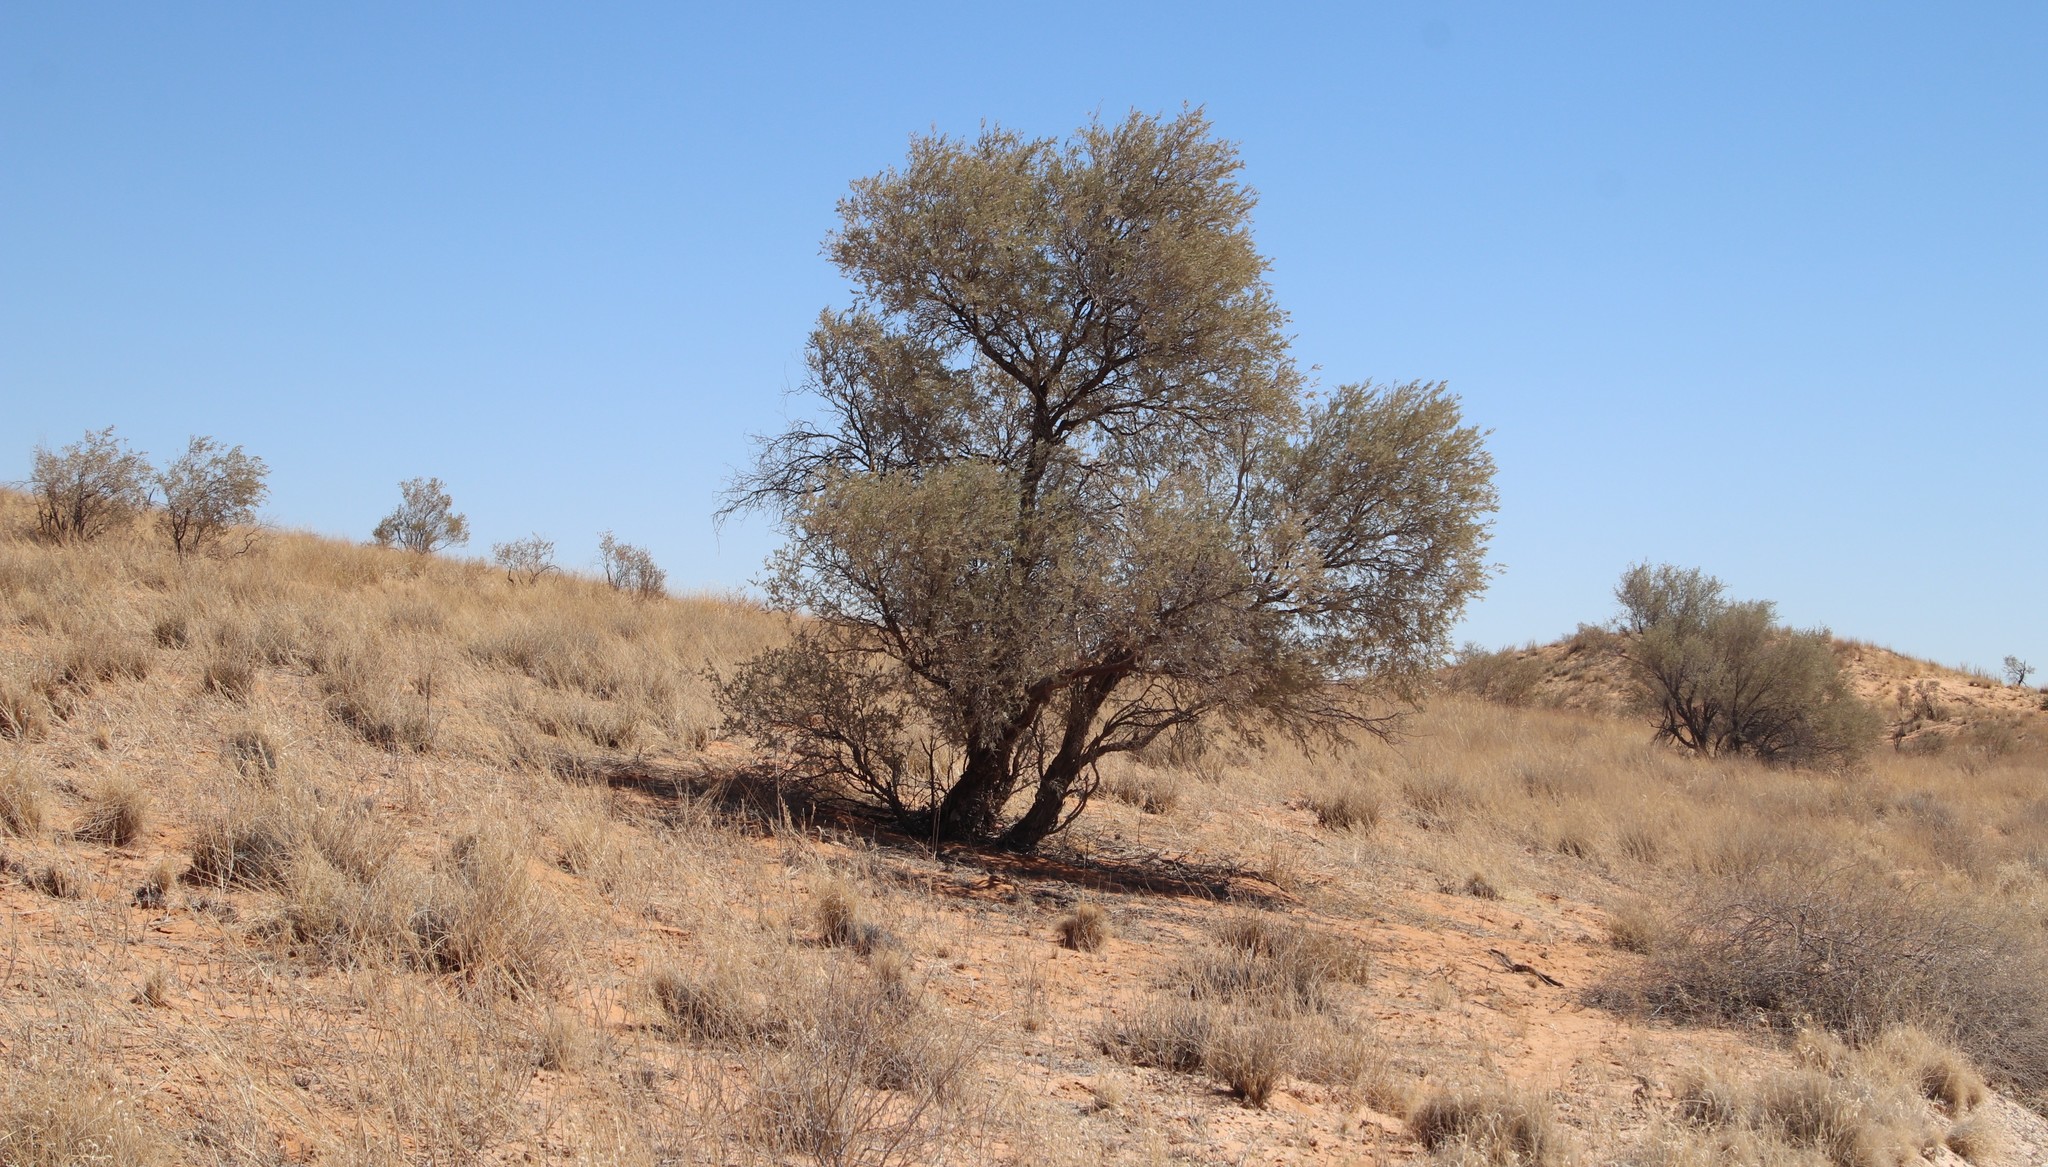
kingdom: Plantae
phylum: Tracheophyta
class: Magnoliopsida
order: Fabales
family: Fabaceae
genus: Vachellia
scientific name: Vachellia haematoxylon
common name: Grey camel thorn
